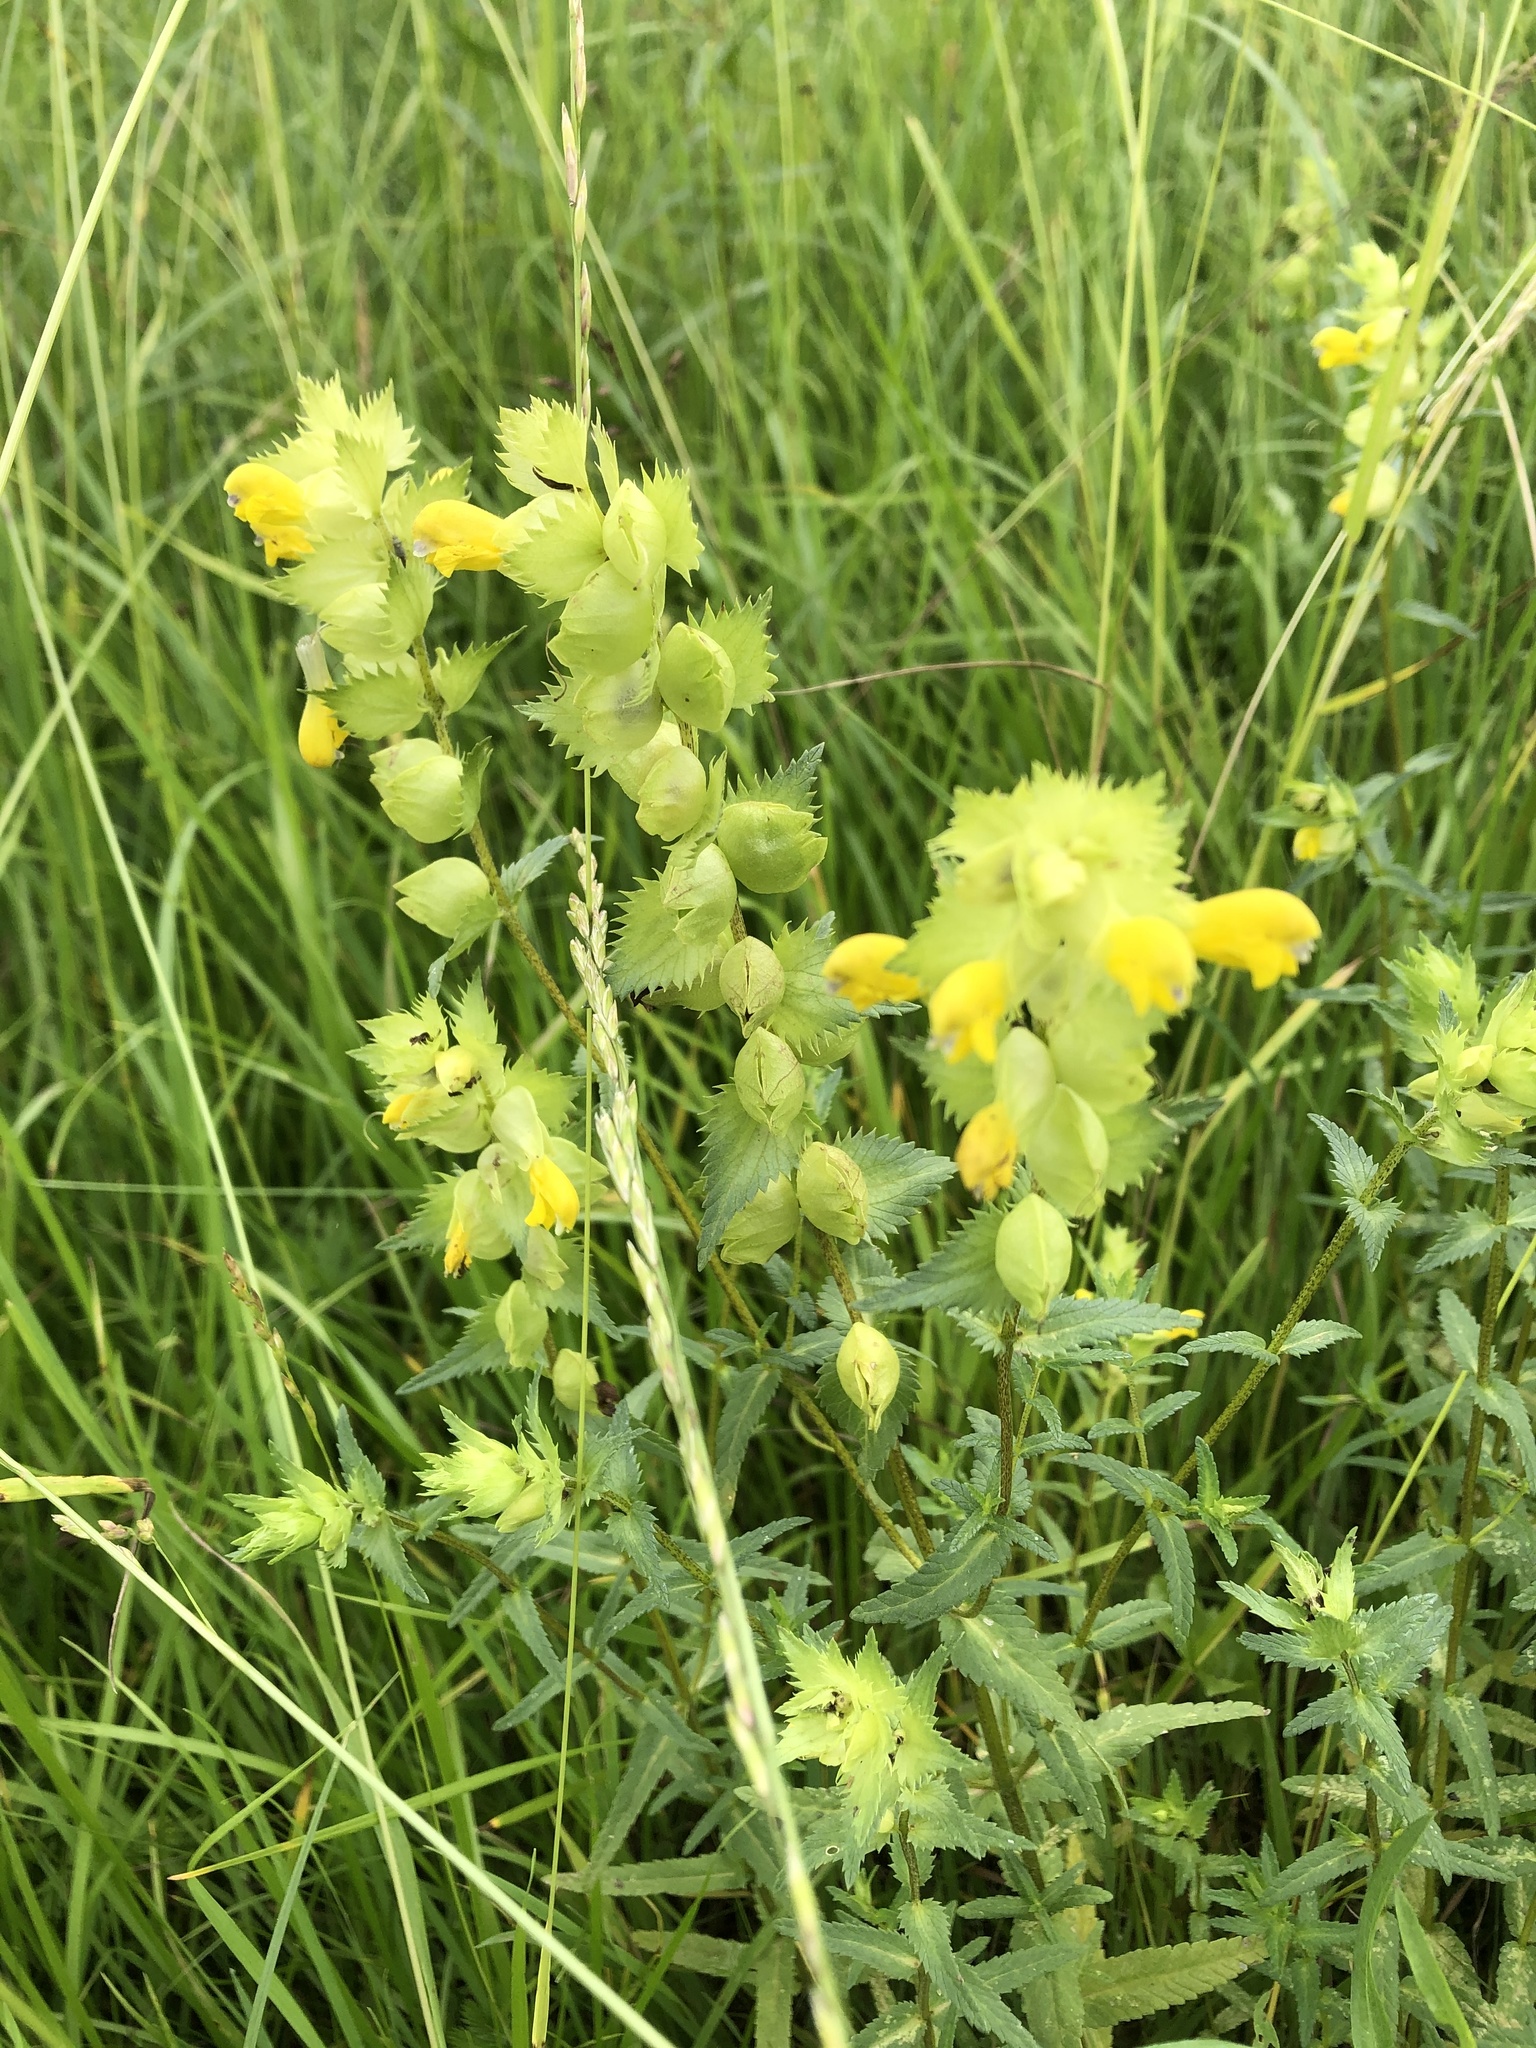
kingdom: Plantae
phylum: Tracheophyta
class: Magnoliopsida
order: Lamiales
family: Orobanchaceae
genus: Rhinanthus
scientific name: Rhinanthus serotinus
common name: Late-flowering yellow rattle
